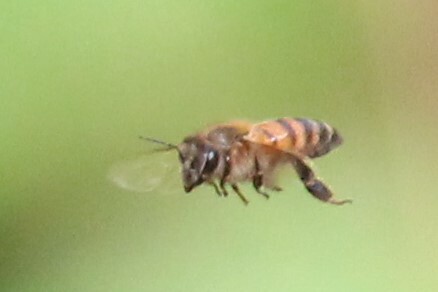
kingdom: Animalia
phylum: Arthropoda
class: Insecta
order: Hymenoptera
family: Apidae
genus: Apis
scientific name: Apis mellifera
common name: Honey bee
